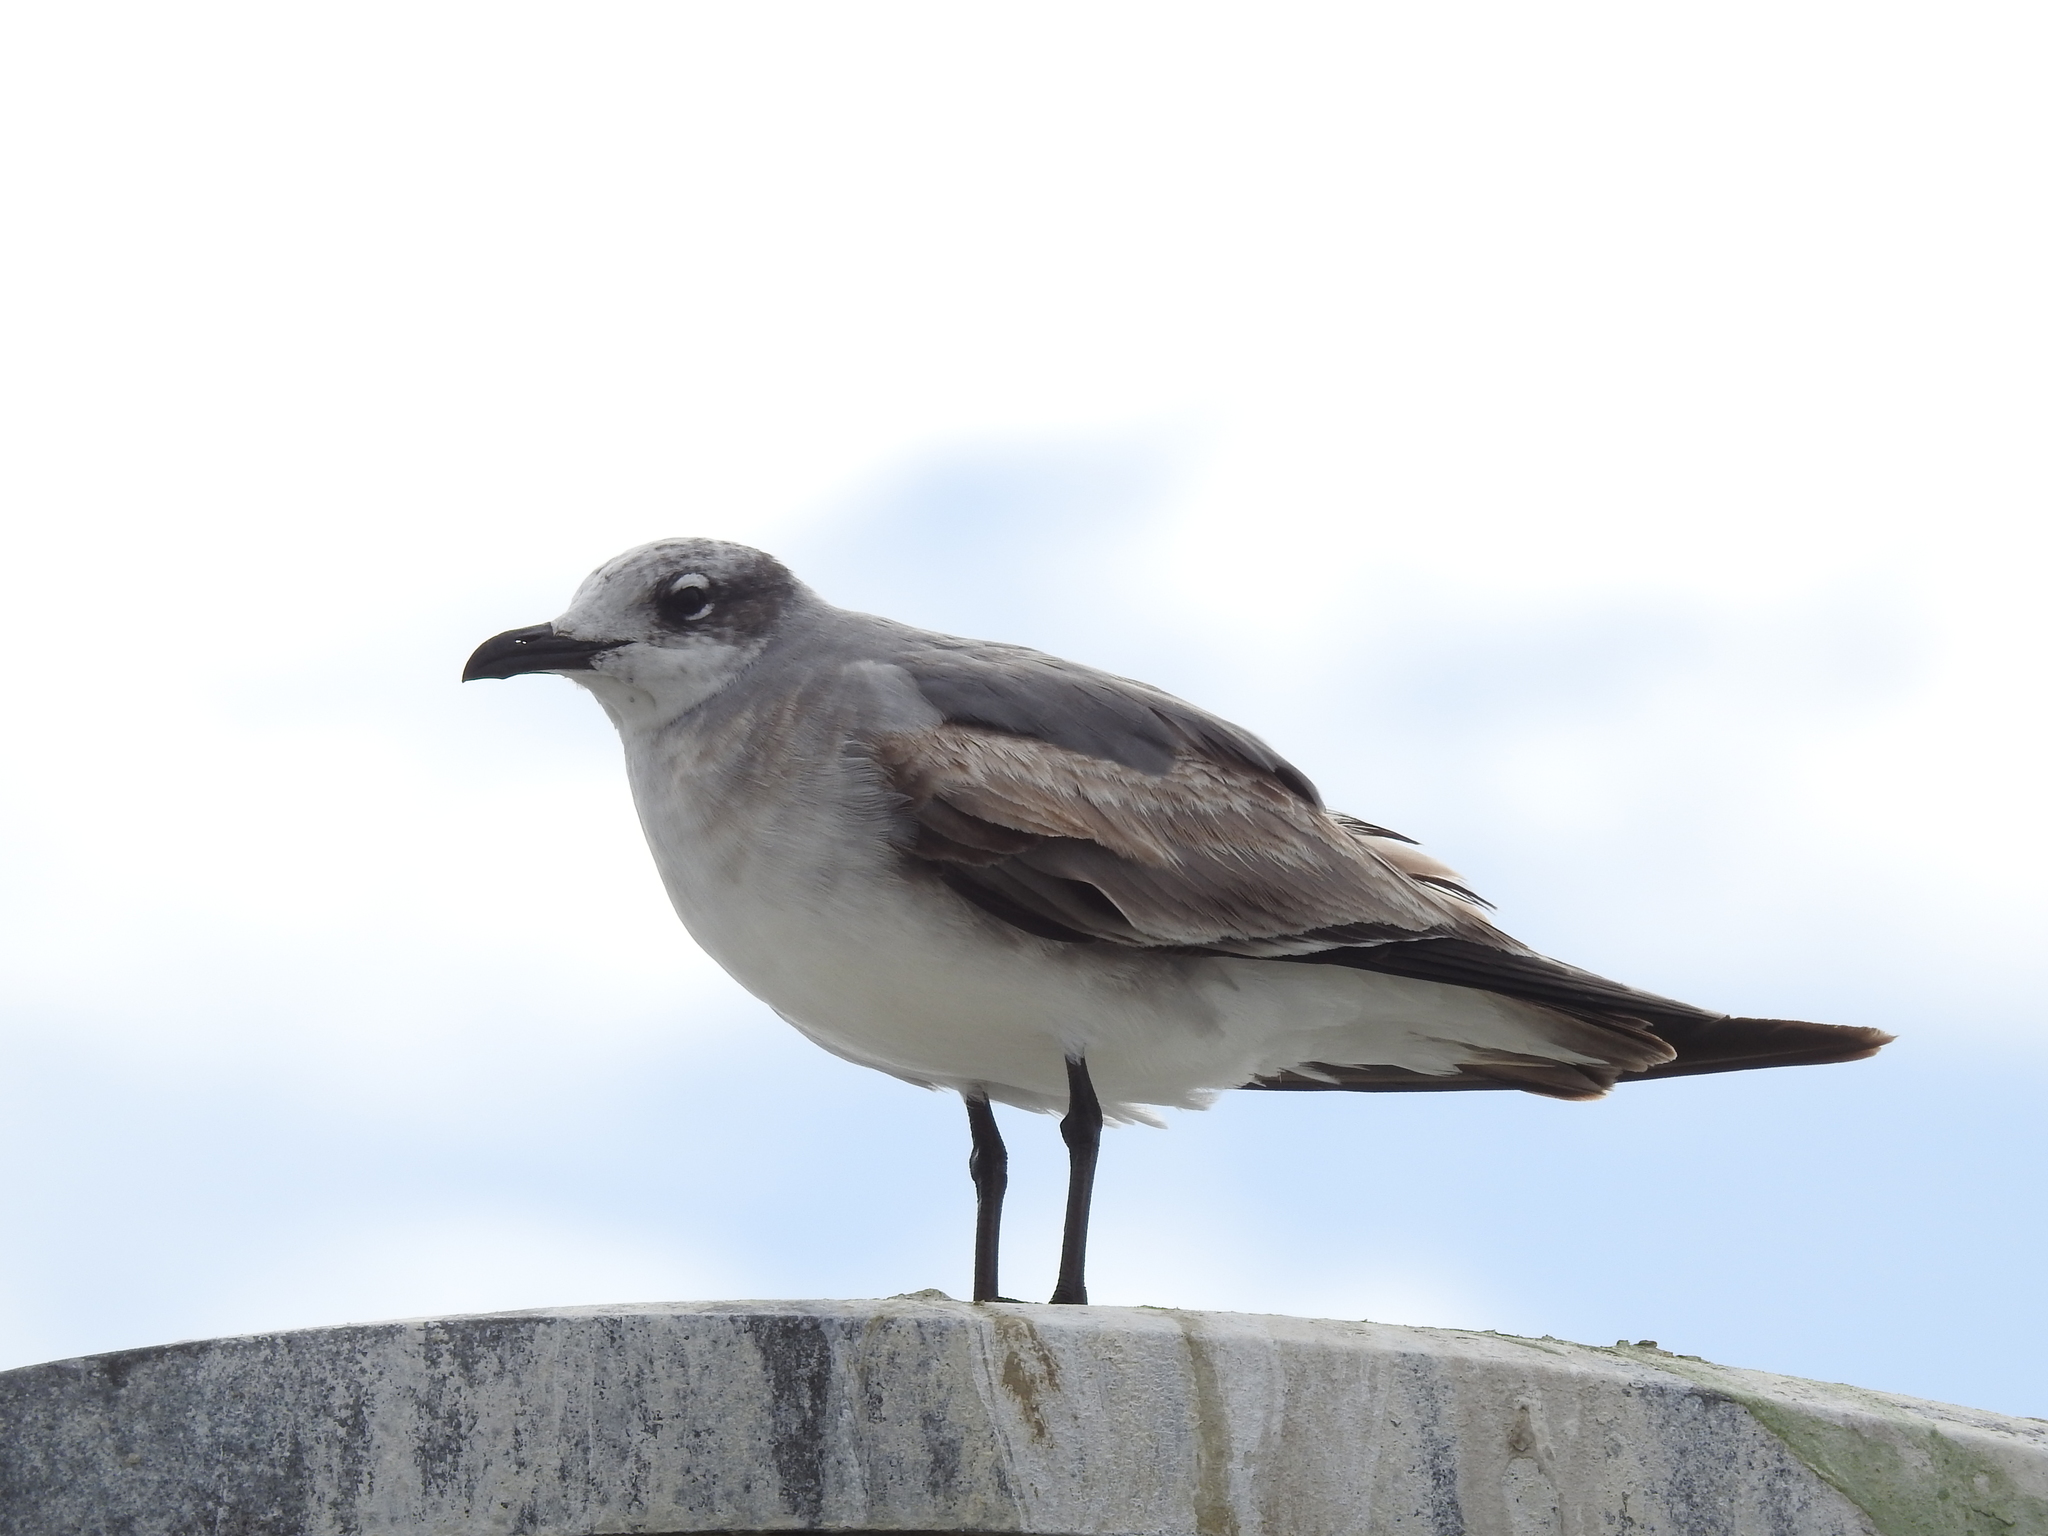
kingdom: Animalia
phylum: Chordata
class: Aves
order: Charadriiformes
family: Laridae
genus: Leucophaeus
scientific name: Leucophaeus atricilla
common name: Laughing gull
